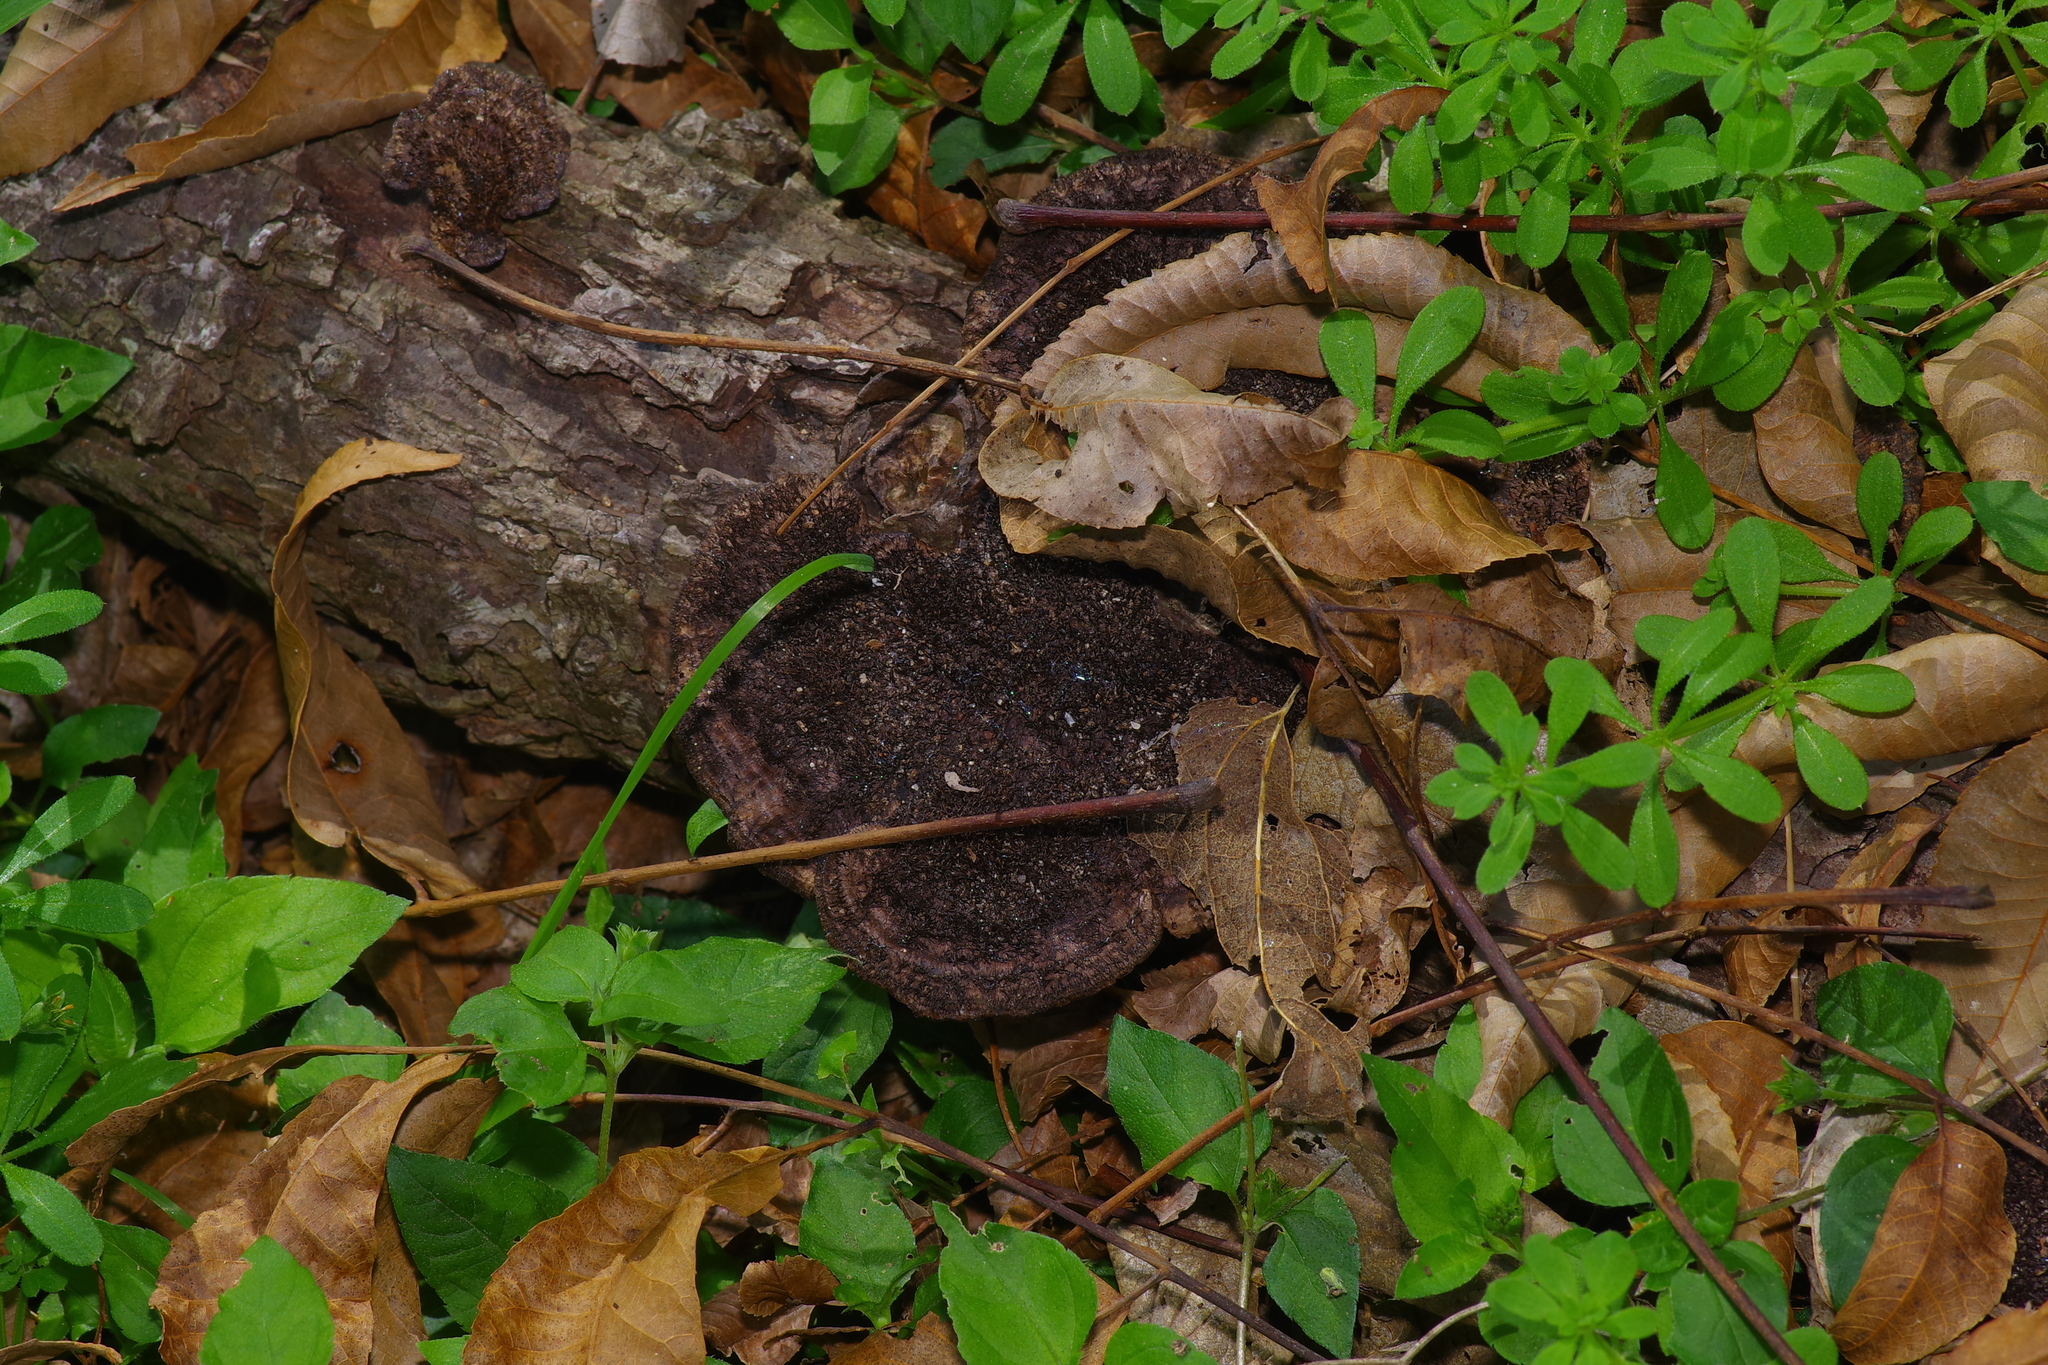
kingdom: Fungi
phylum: Basidiomycota
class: Agaricomycetes
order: Polyporales
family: Cerrenaceae
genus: Cerrena
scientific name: Cerrena hydnoides
